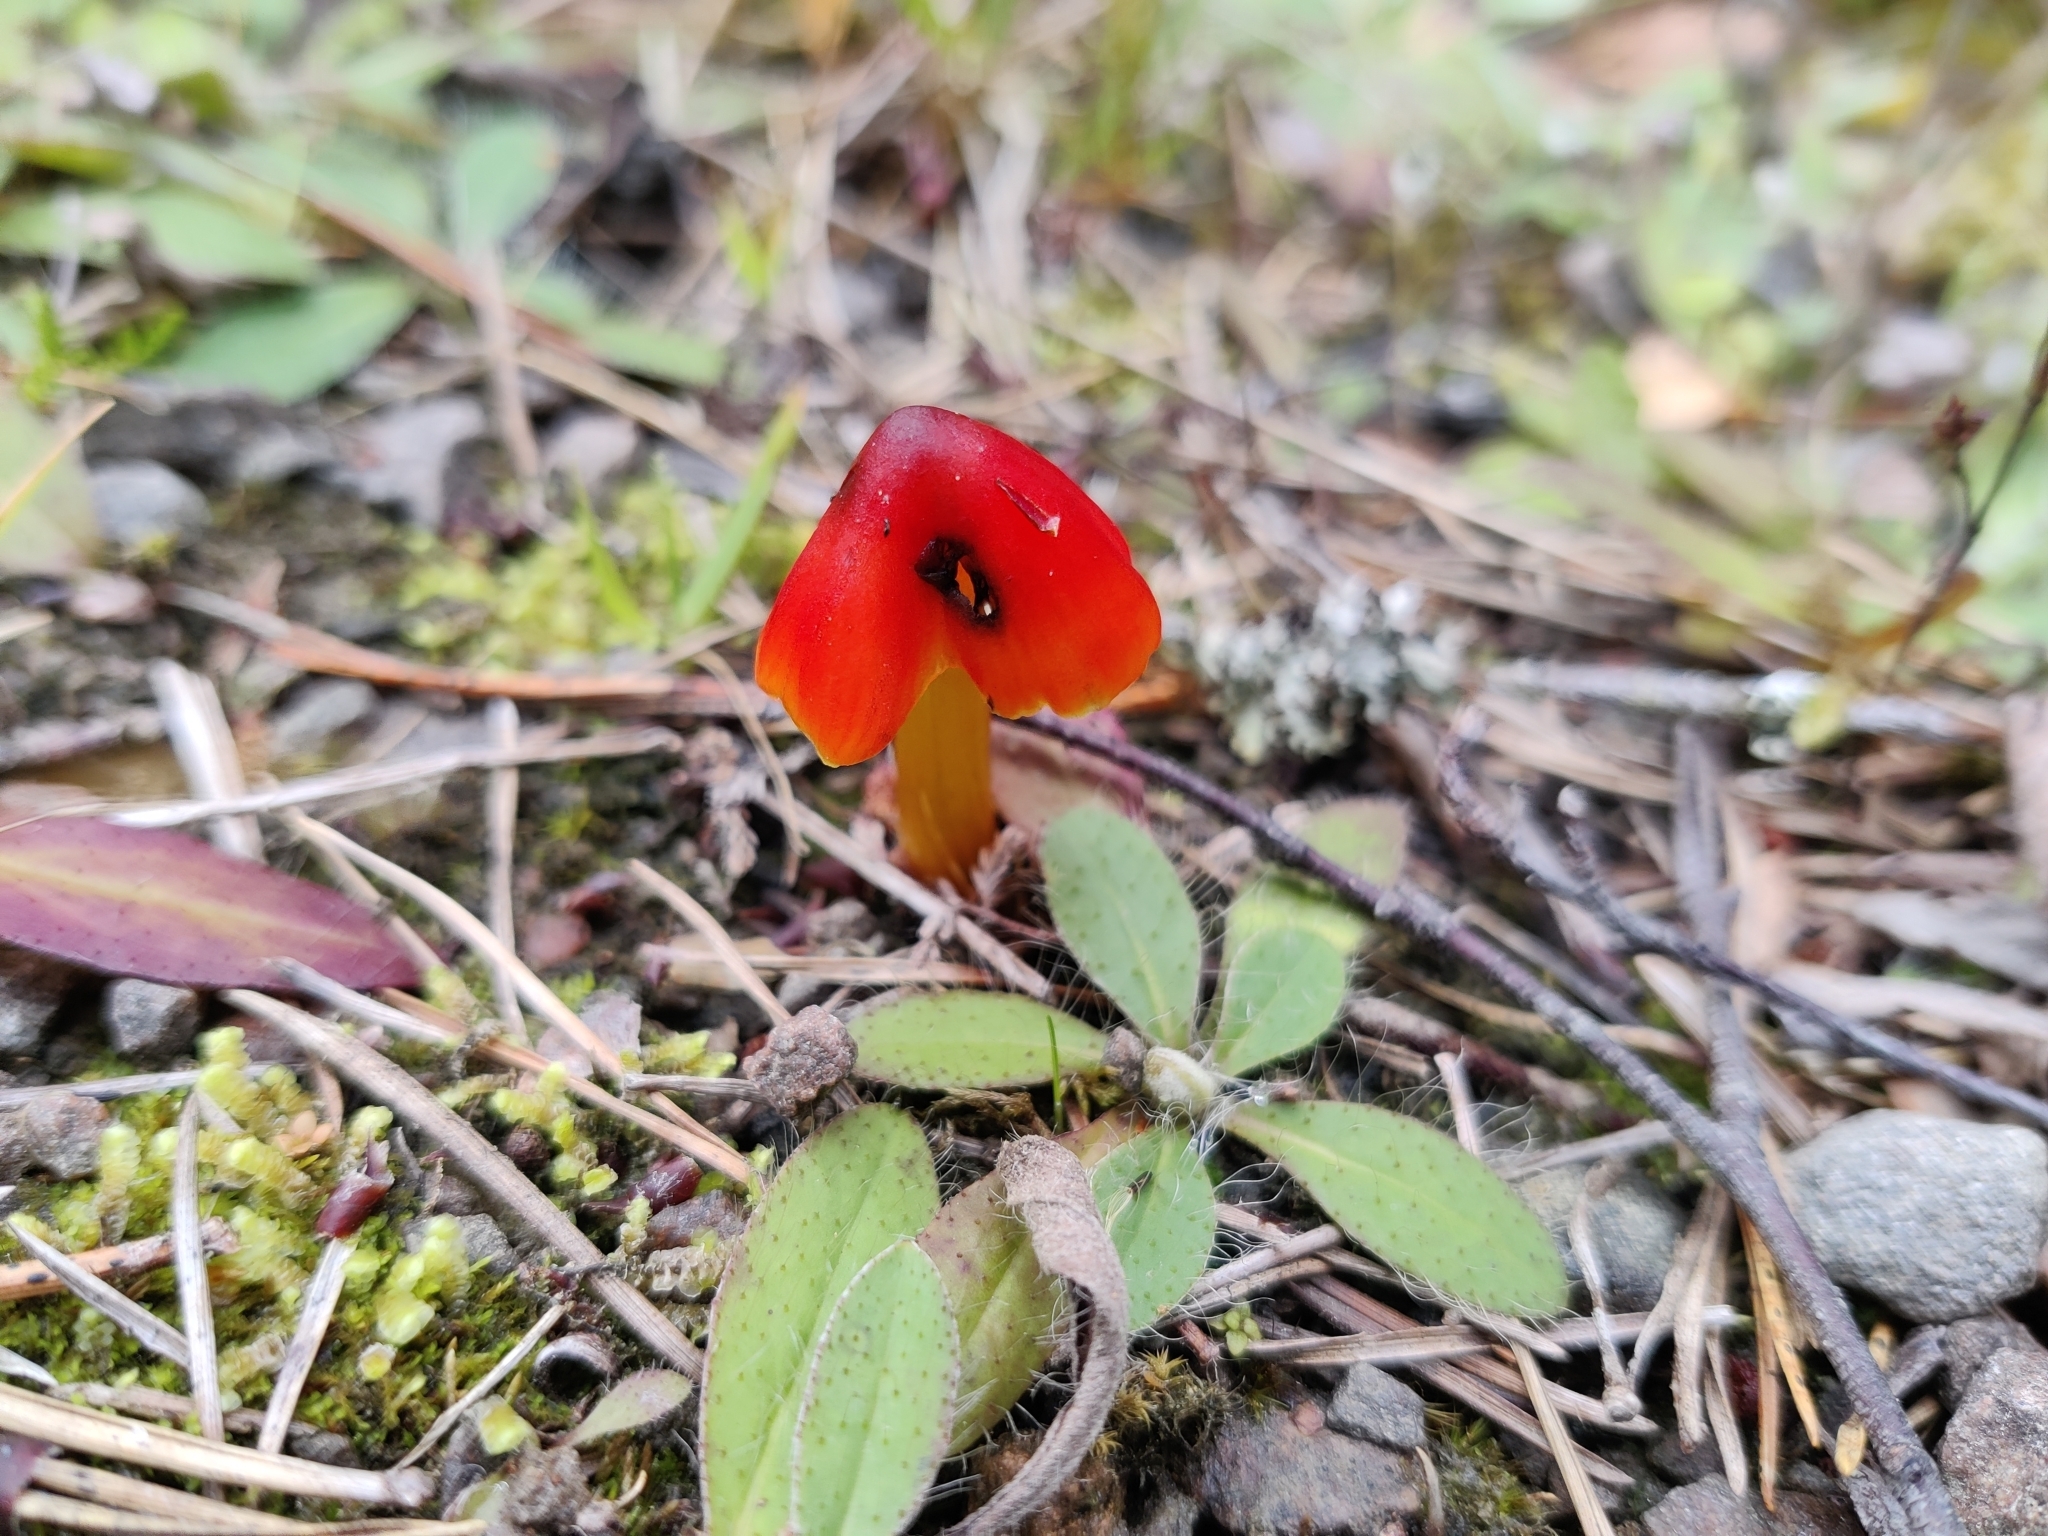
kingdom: Fungi
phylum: Basidiomycota
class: Agaricomycetes
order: Agaricales
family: Hygrophoraceae
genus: Hygrocybe
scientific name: Hygrocybe conica
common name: Blackening wax-cap
